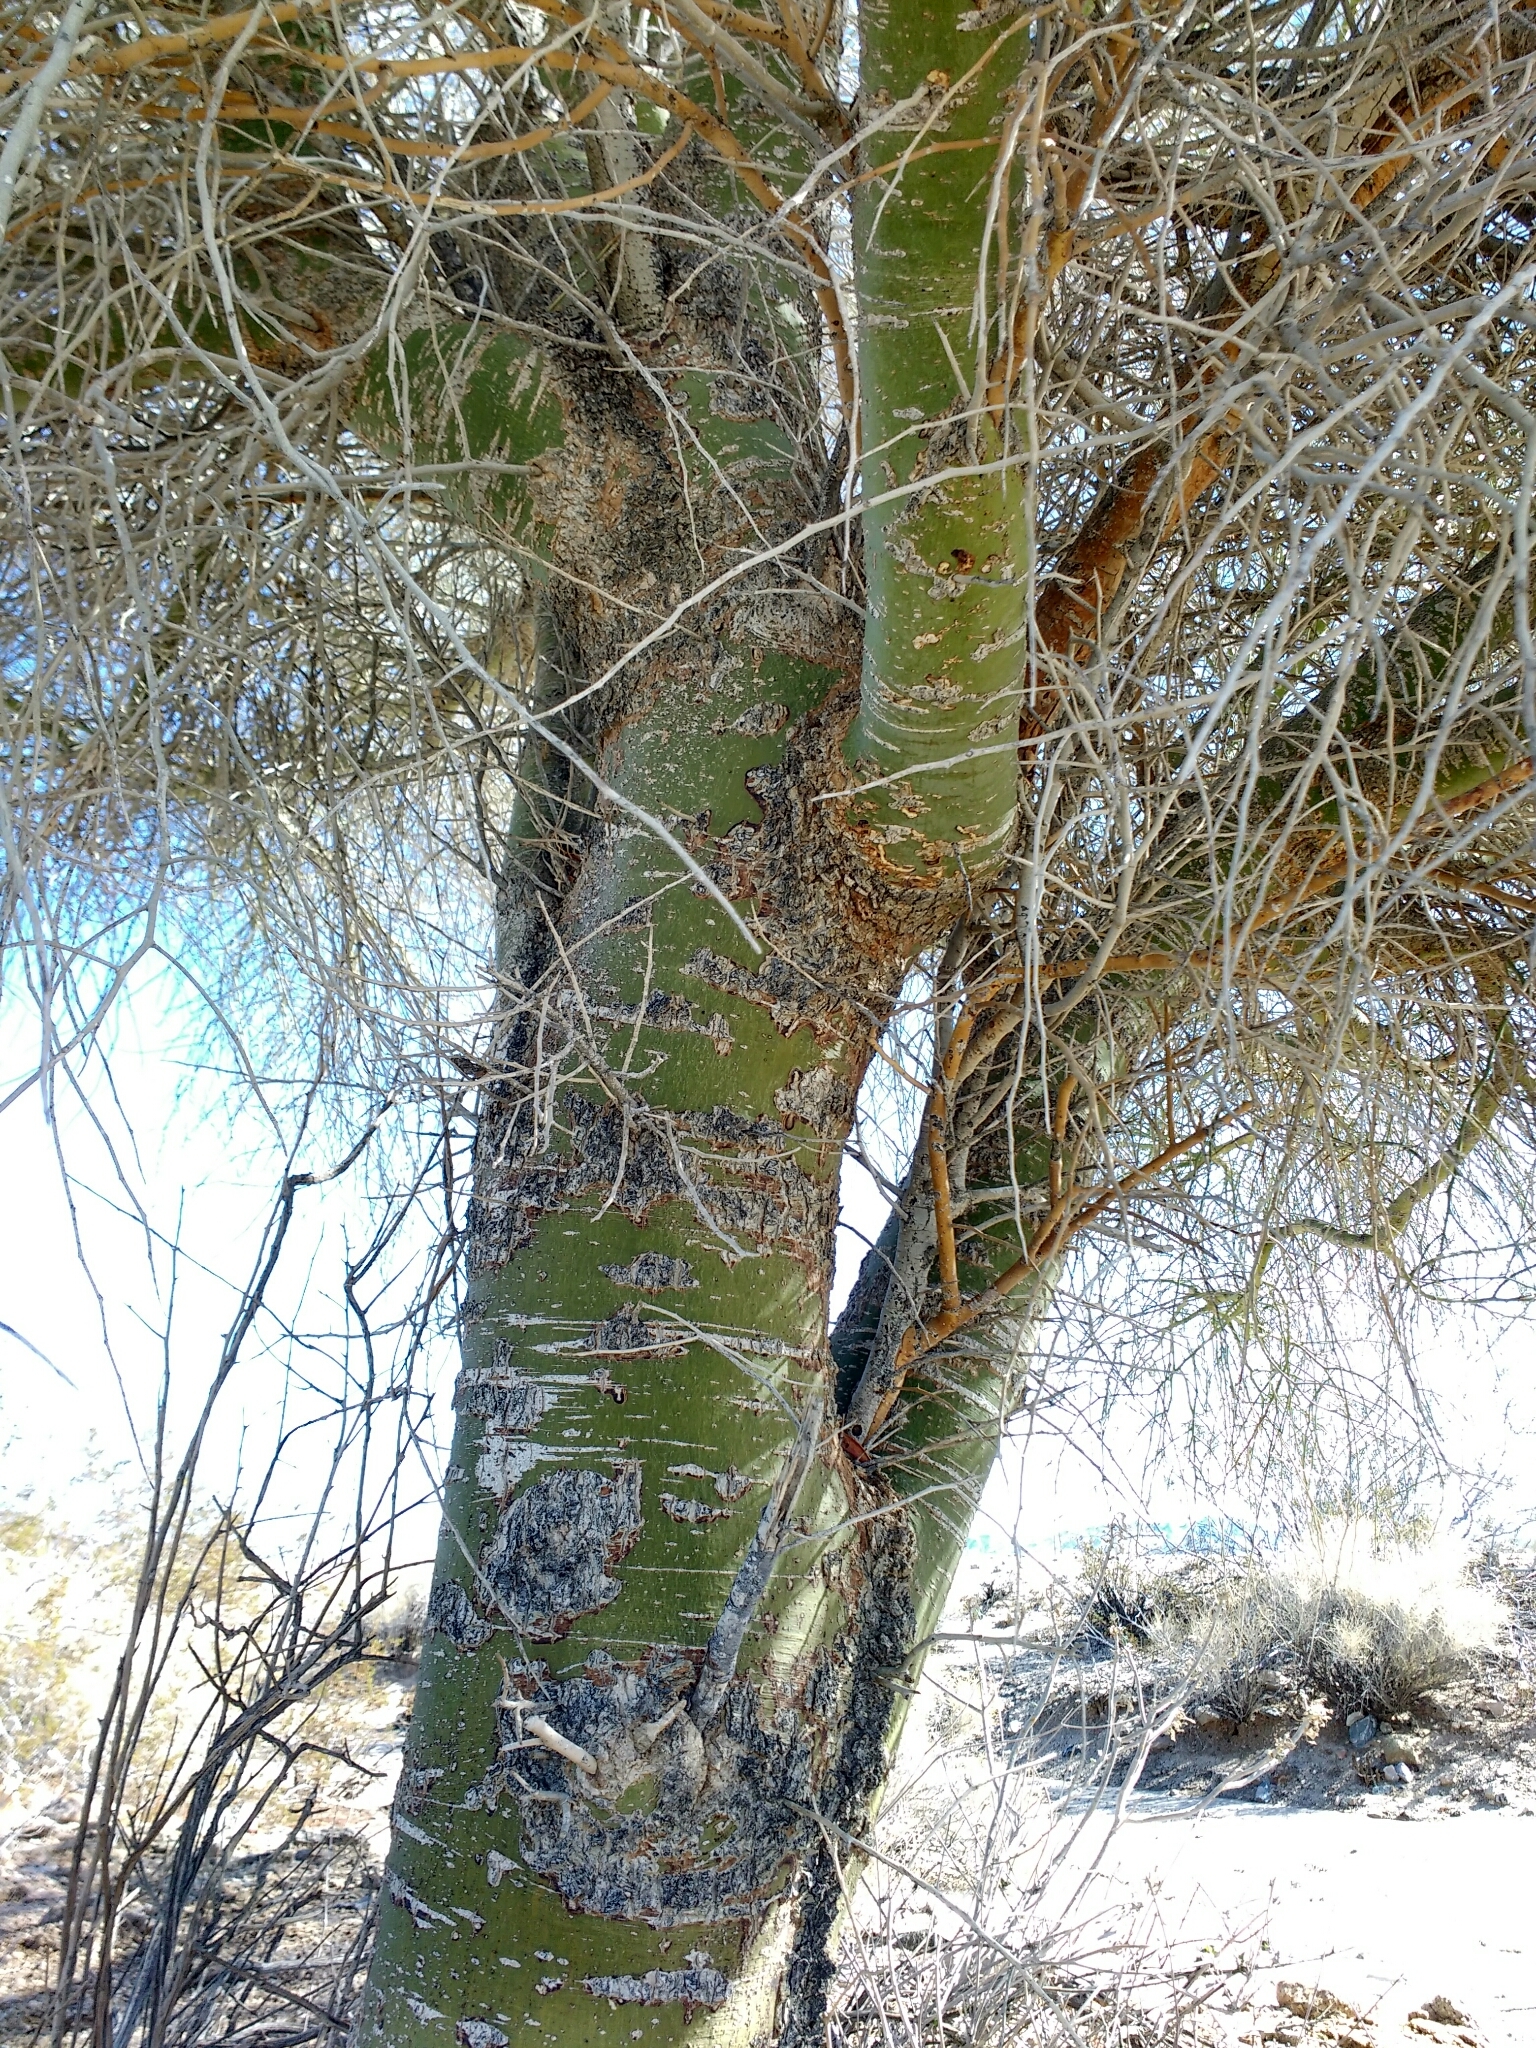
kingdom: Plantae
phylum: Tracheophyta
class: Magnoliopsida
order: Fabales
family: Fabaceae
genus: Parkinsonia
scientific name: Parkinsonia florida
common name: Blue paloverde
